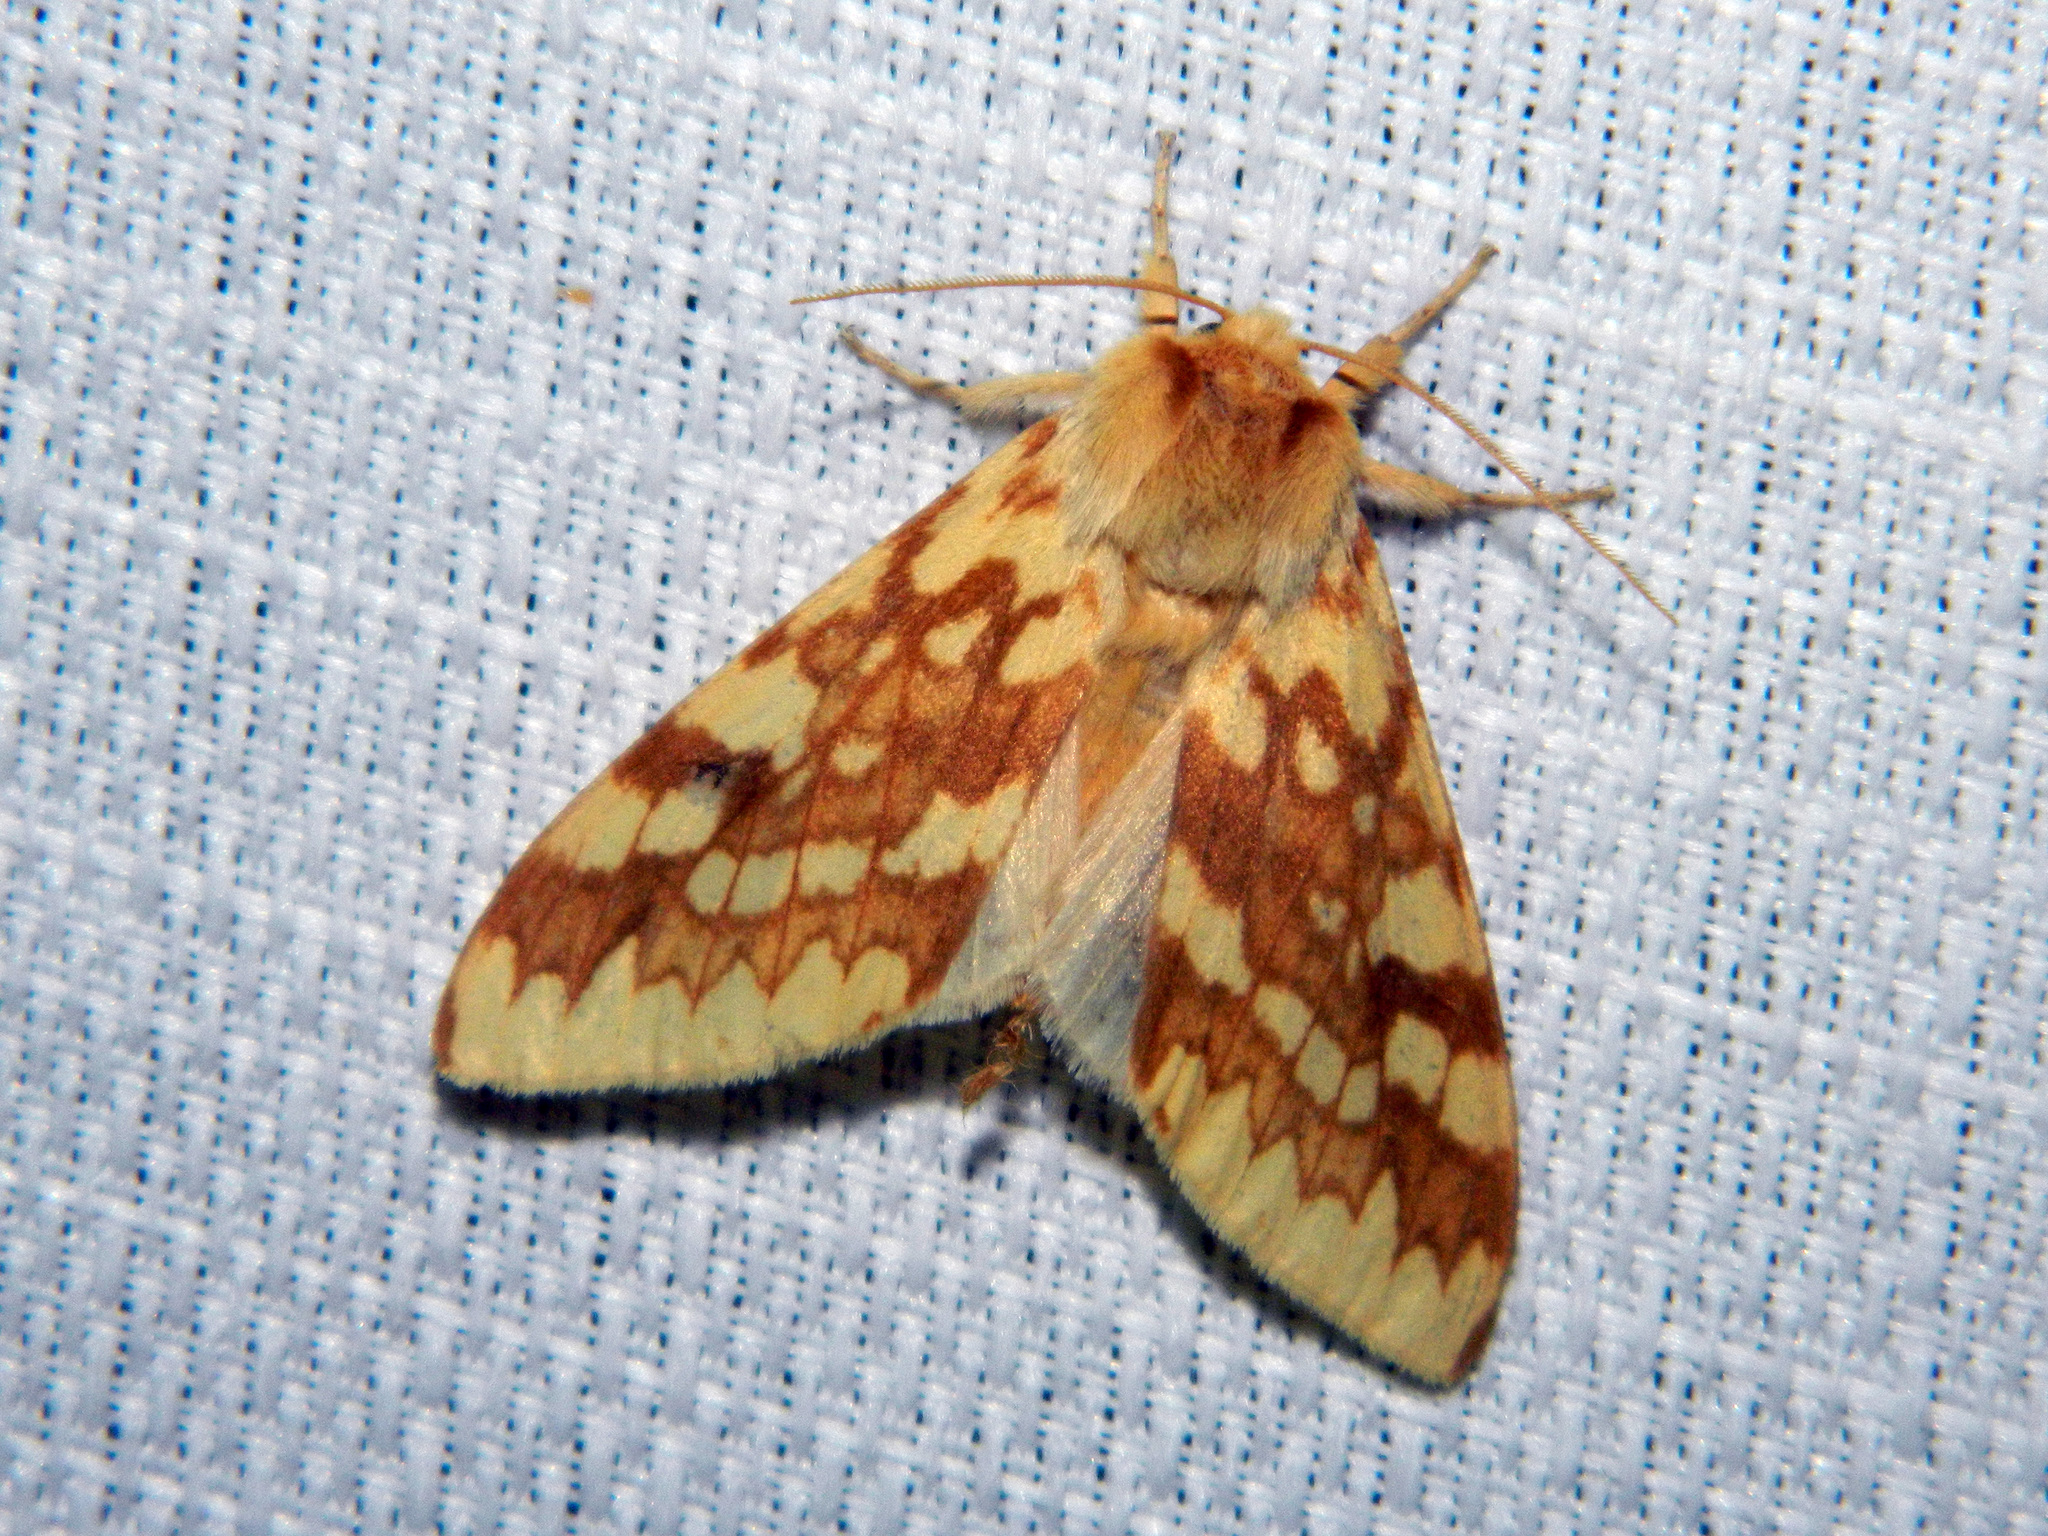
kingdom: Animalia
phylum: Arthropoda
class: Insecta
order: Lepidoptera
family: Erebidae
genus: Lophocampa
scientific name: Lophocampa maculata
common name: Spotted tussock moth
